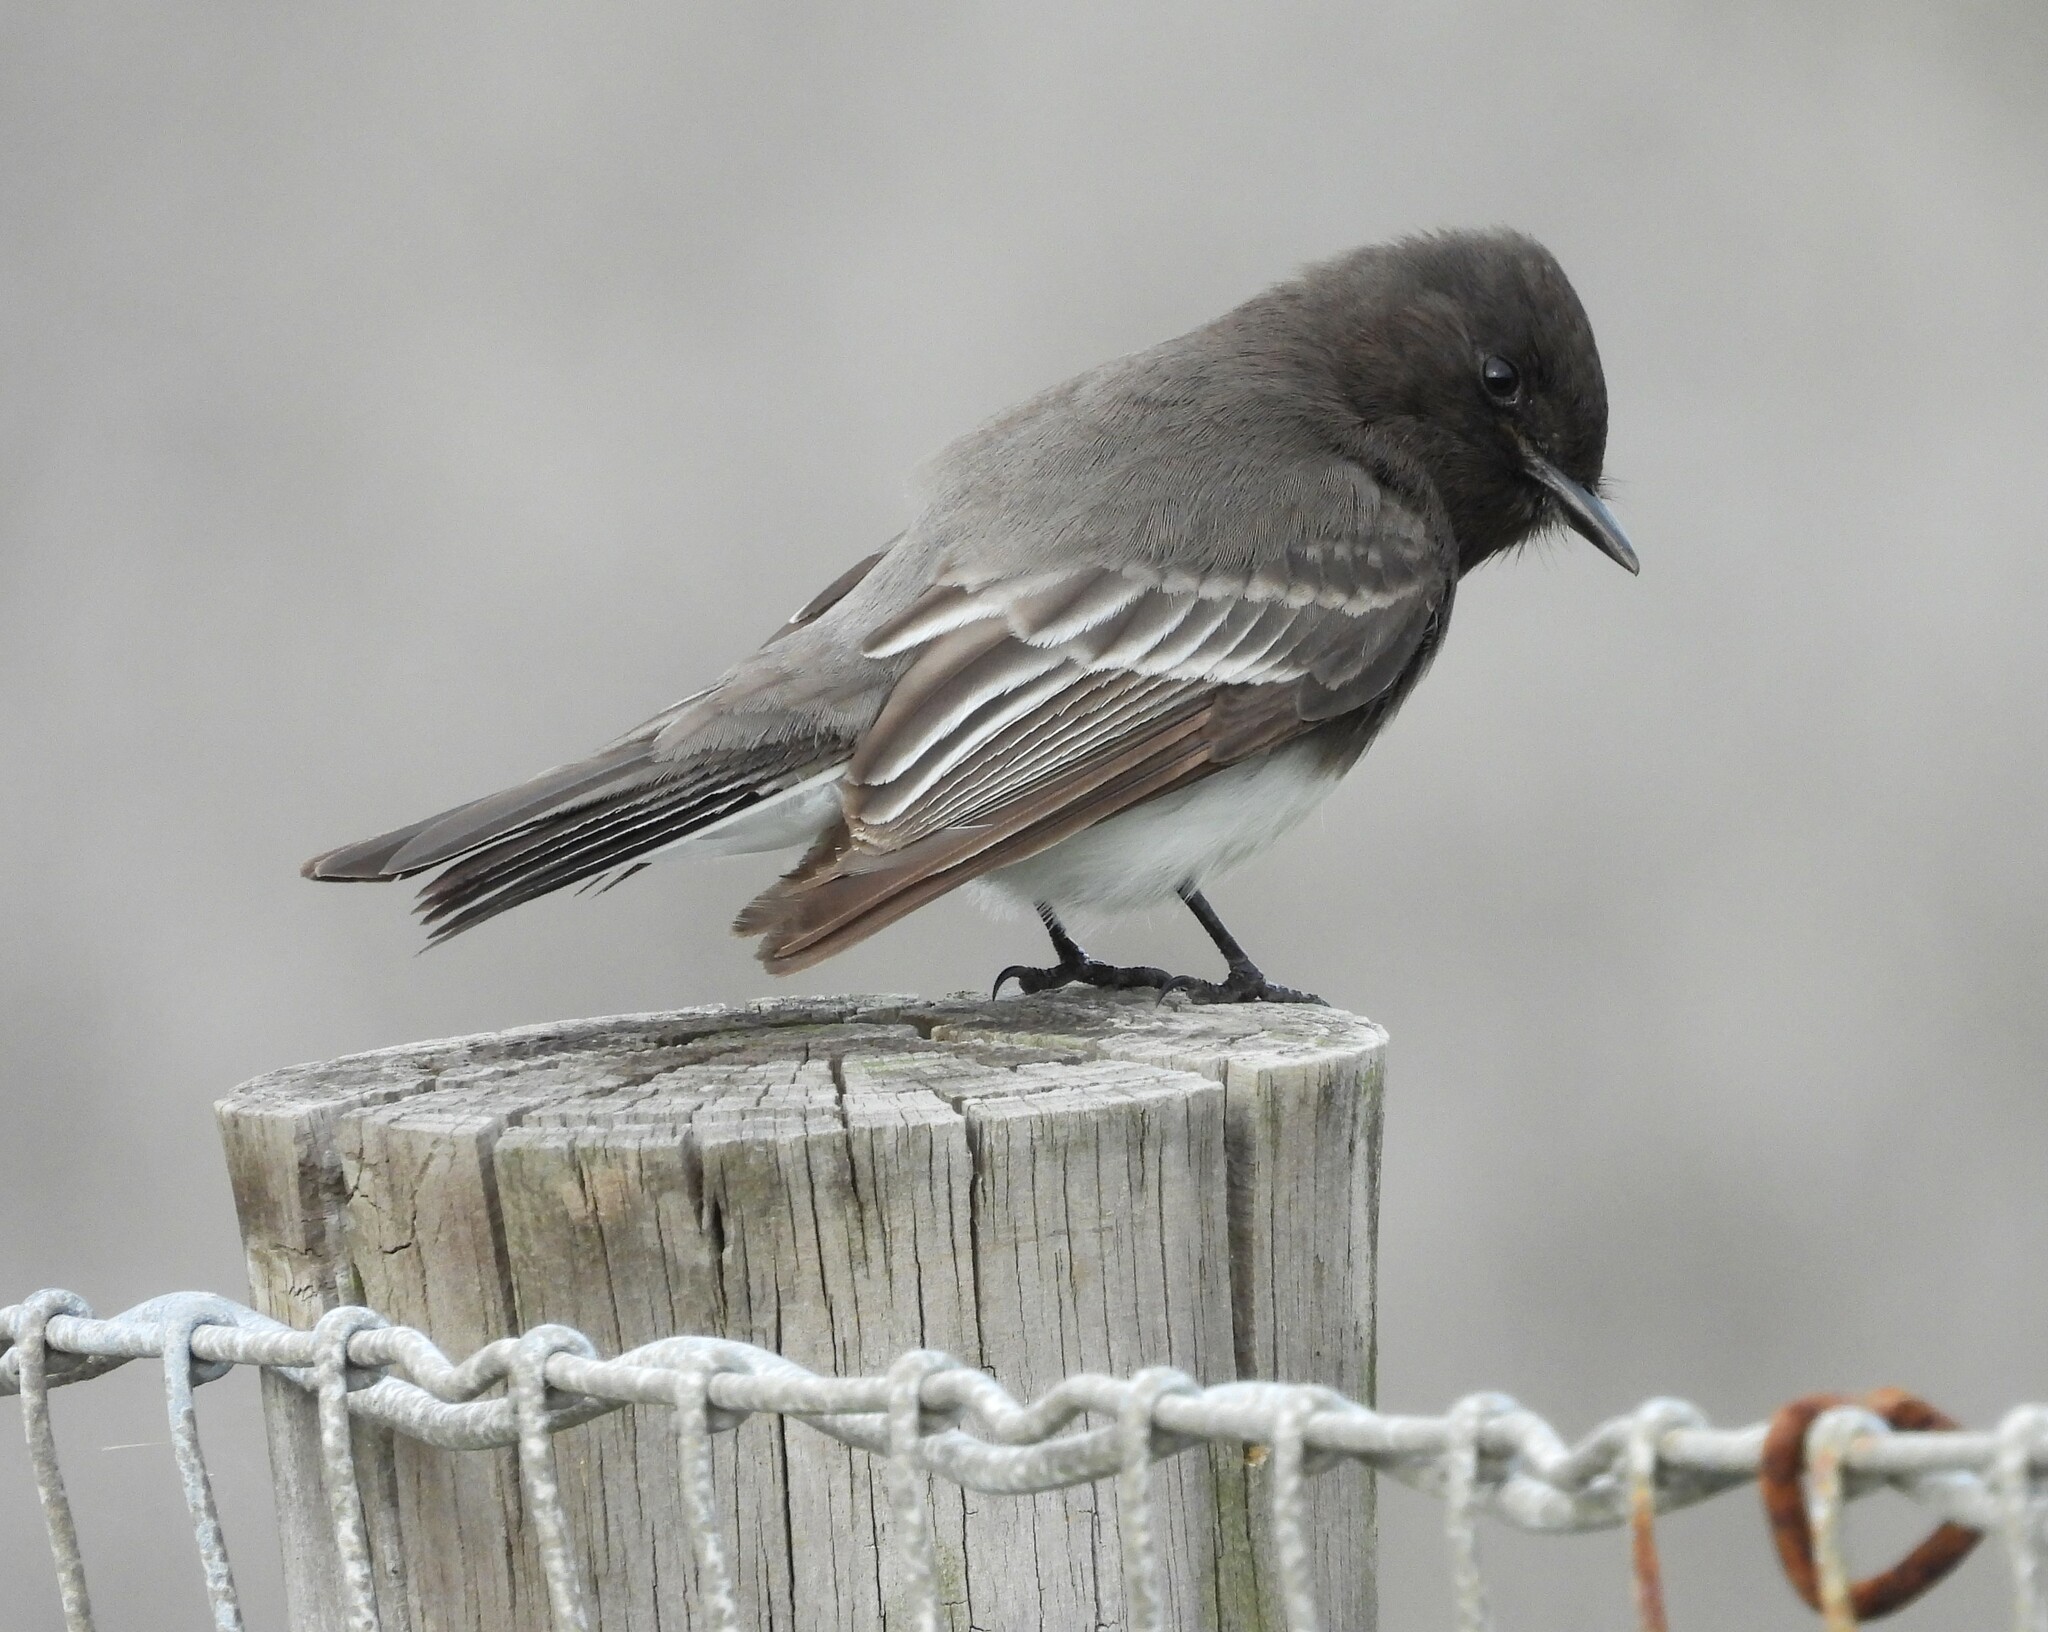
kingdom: Animalia
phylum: Chordata
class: Aves
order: Passeriformes
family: Tyrannidae
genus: Sayornis
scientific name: Sayornis nigricans
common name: Black phoebe
